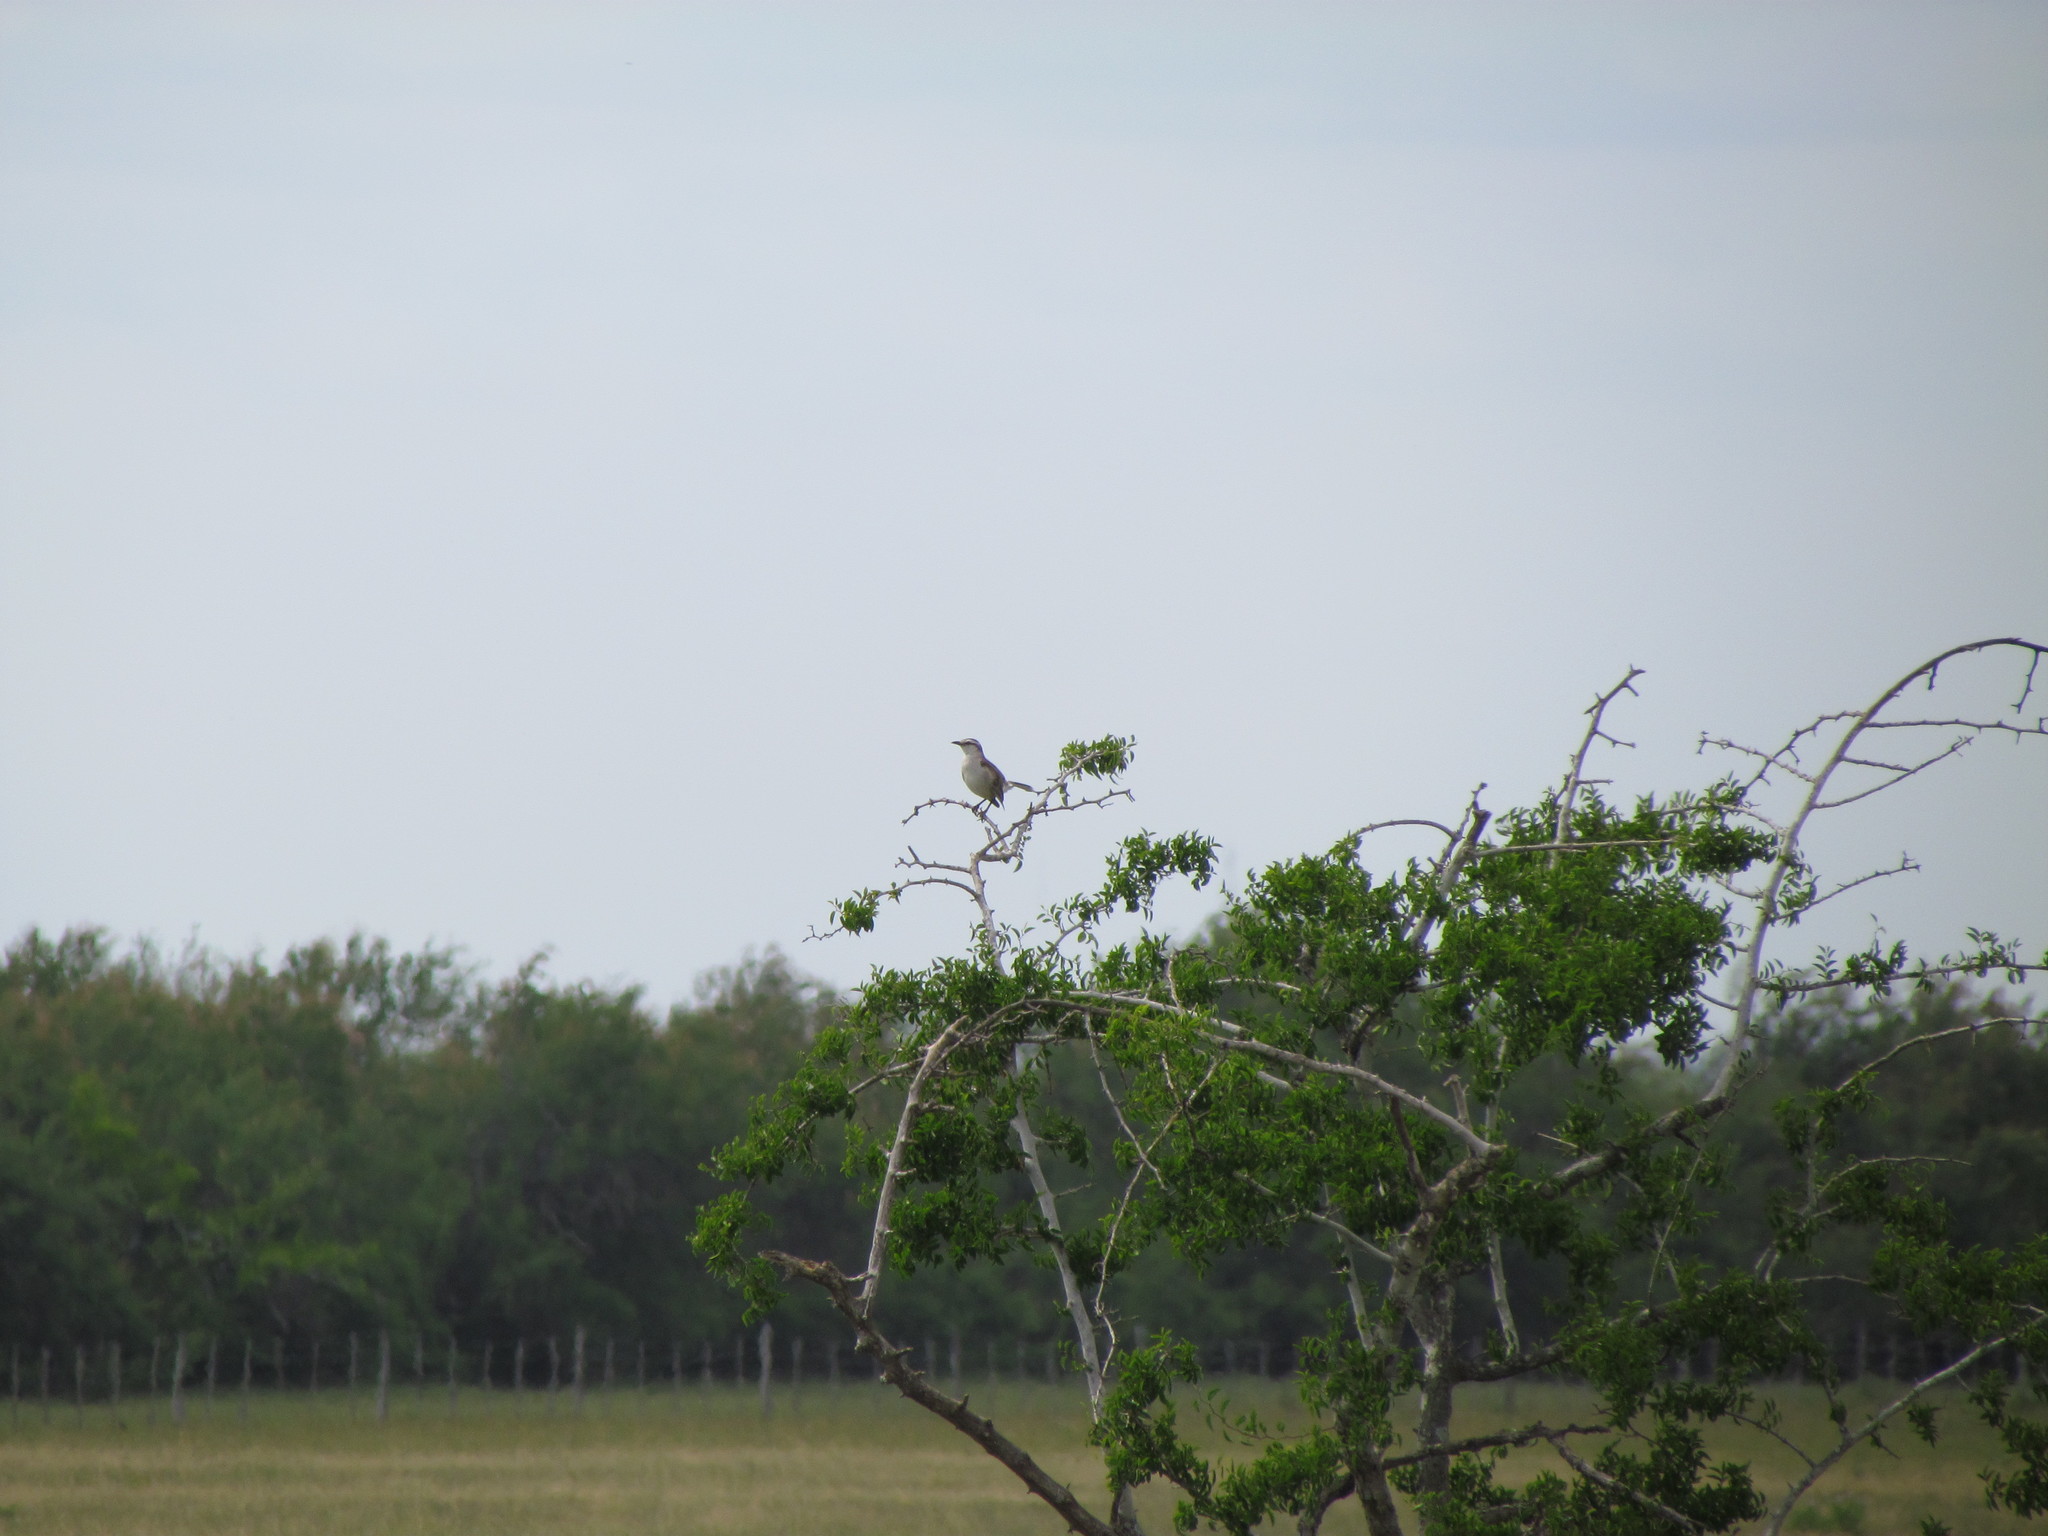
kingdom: Animalia
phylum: Chordata
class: Aves
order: Passeriformes
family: Mimidae
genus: Mimus
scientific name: Mimus saturninus
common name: Chalk-browed mockingbird
